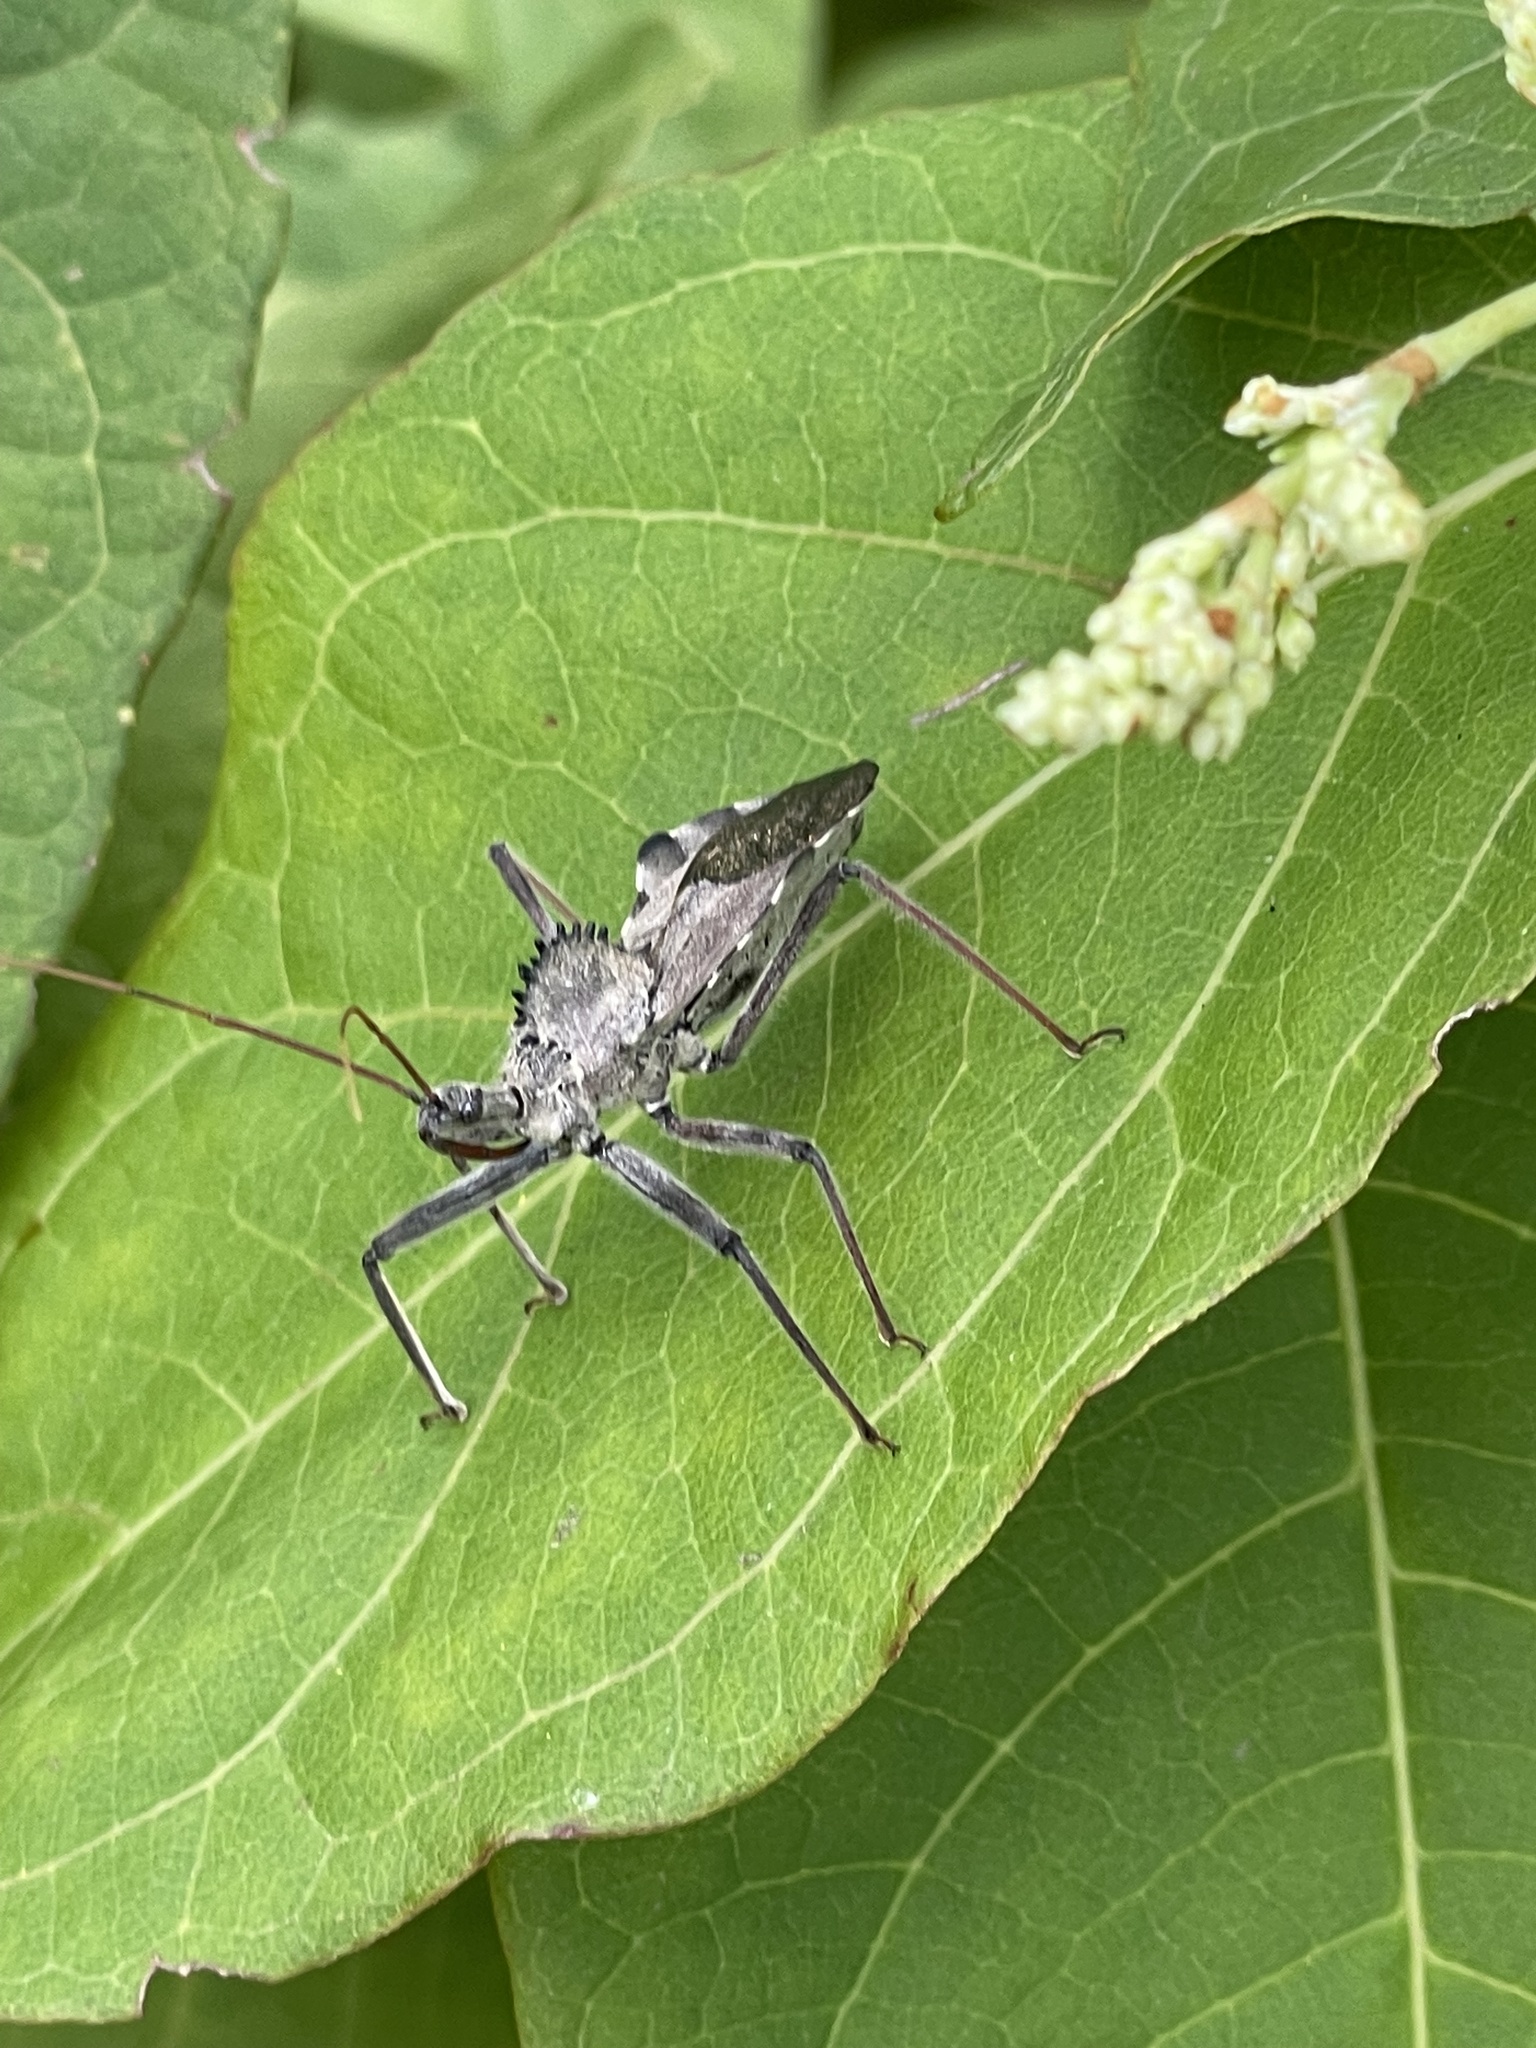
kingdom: Animalia
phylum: Arthropoda
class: Insecta
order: Hemiptera
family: Reduviidae
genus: Arilus
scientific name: Arilus cristatus
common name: North american wheel bug
